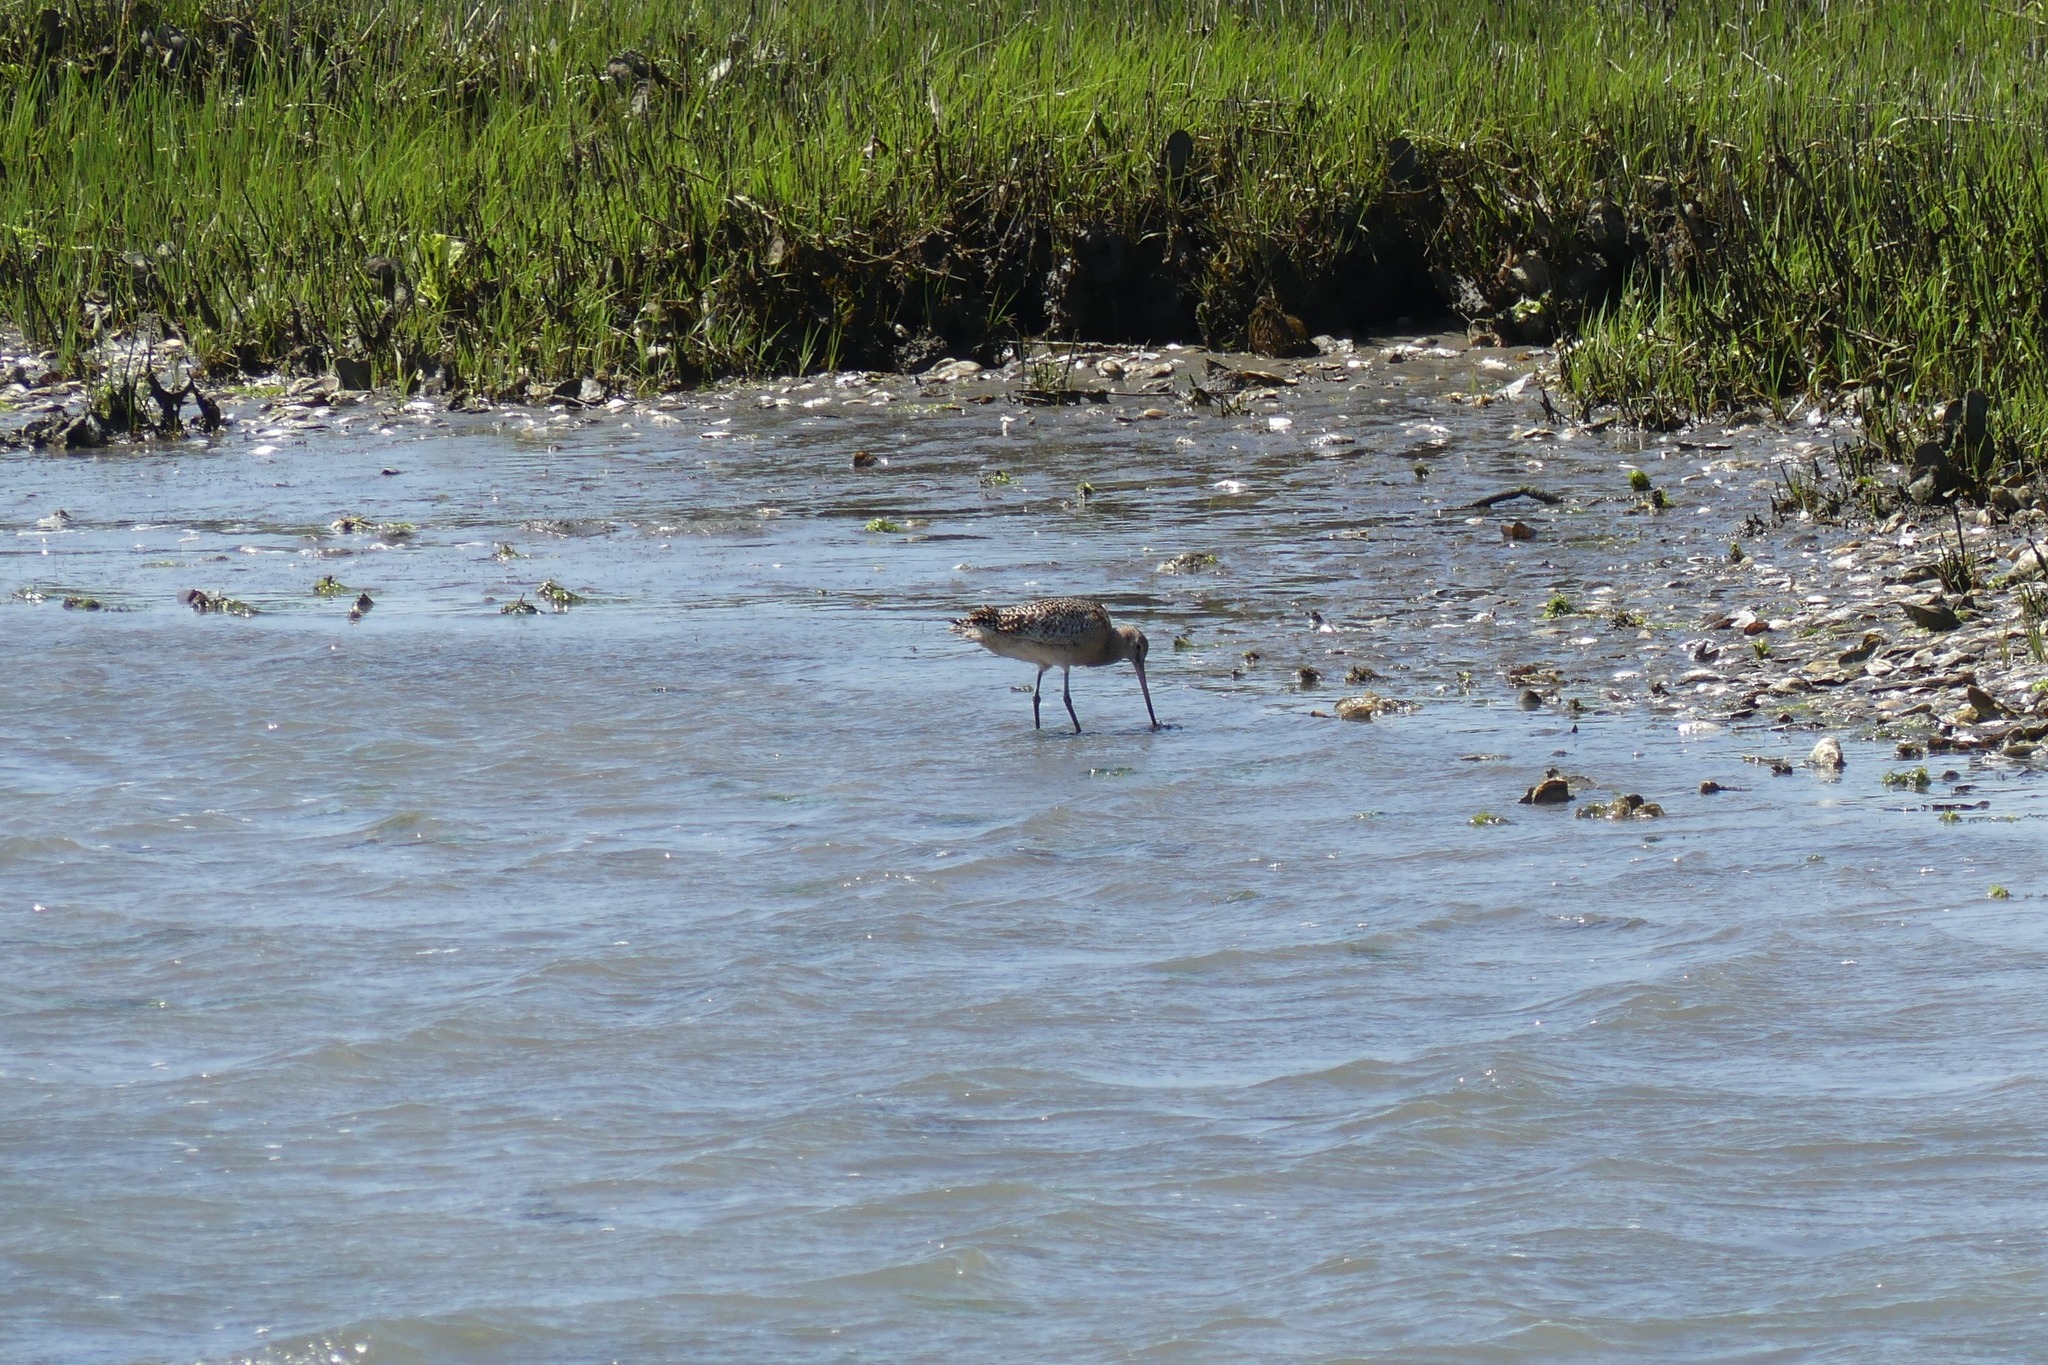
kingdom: Animalia
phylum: Chordata
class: Aves
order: Charadriiformes
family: Scolopacidae
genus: Limosa
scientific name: Limosa fedoa
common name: Marbled godwit
